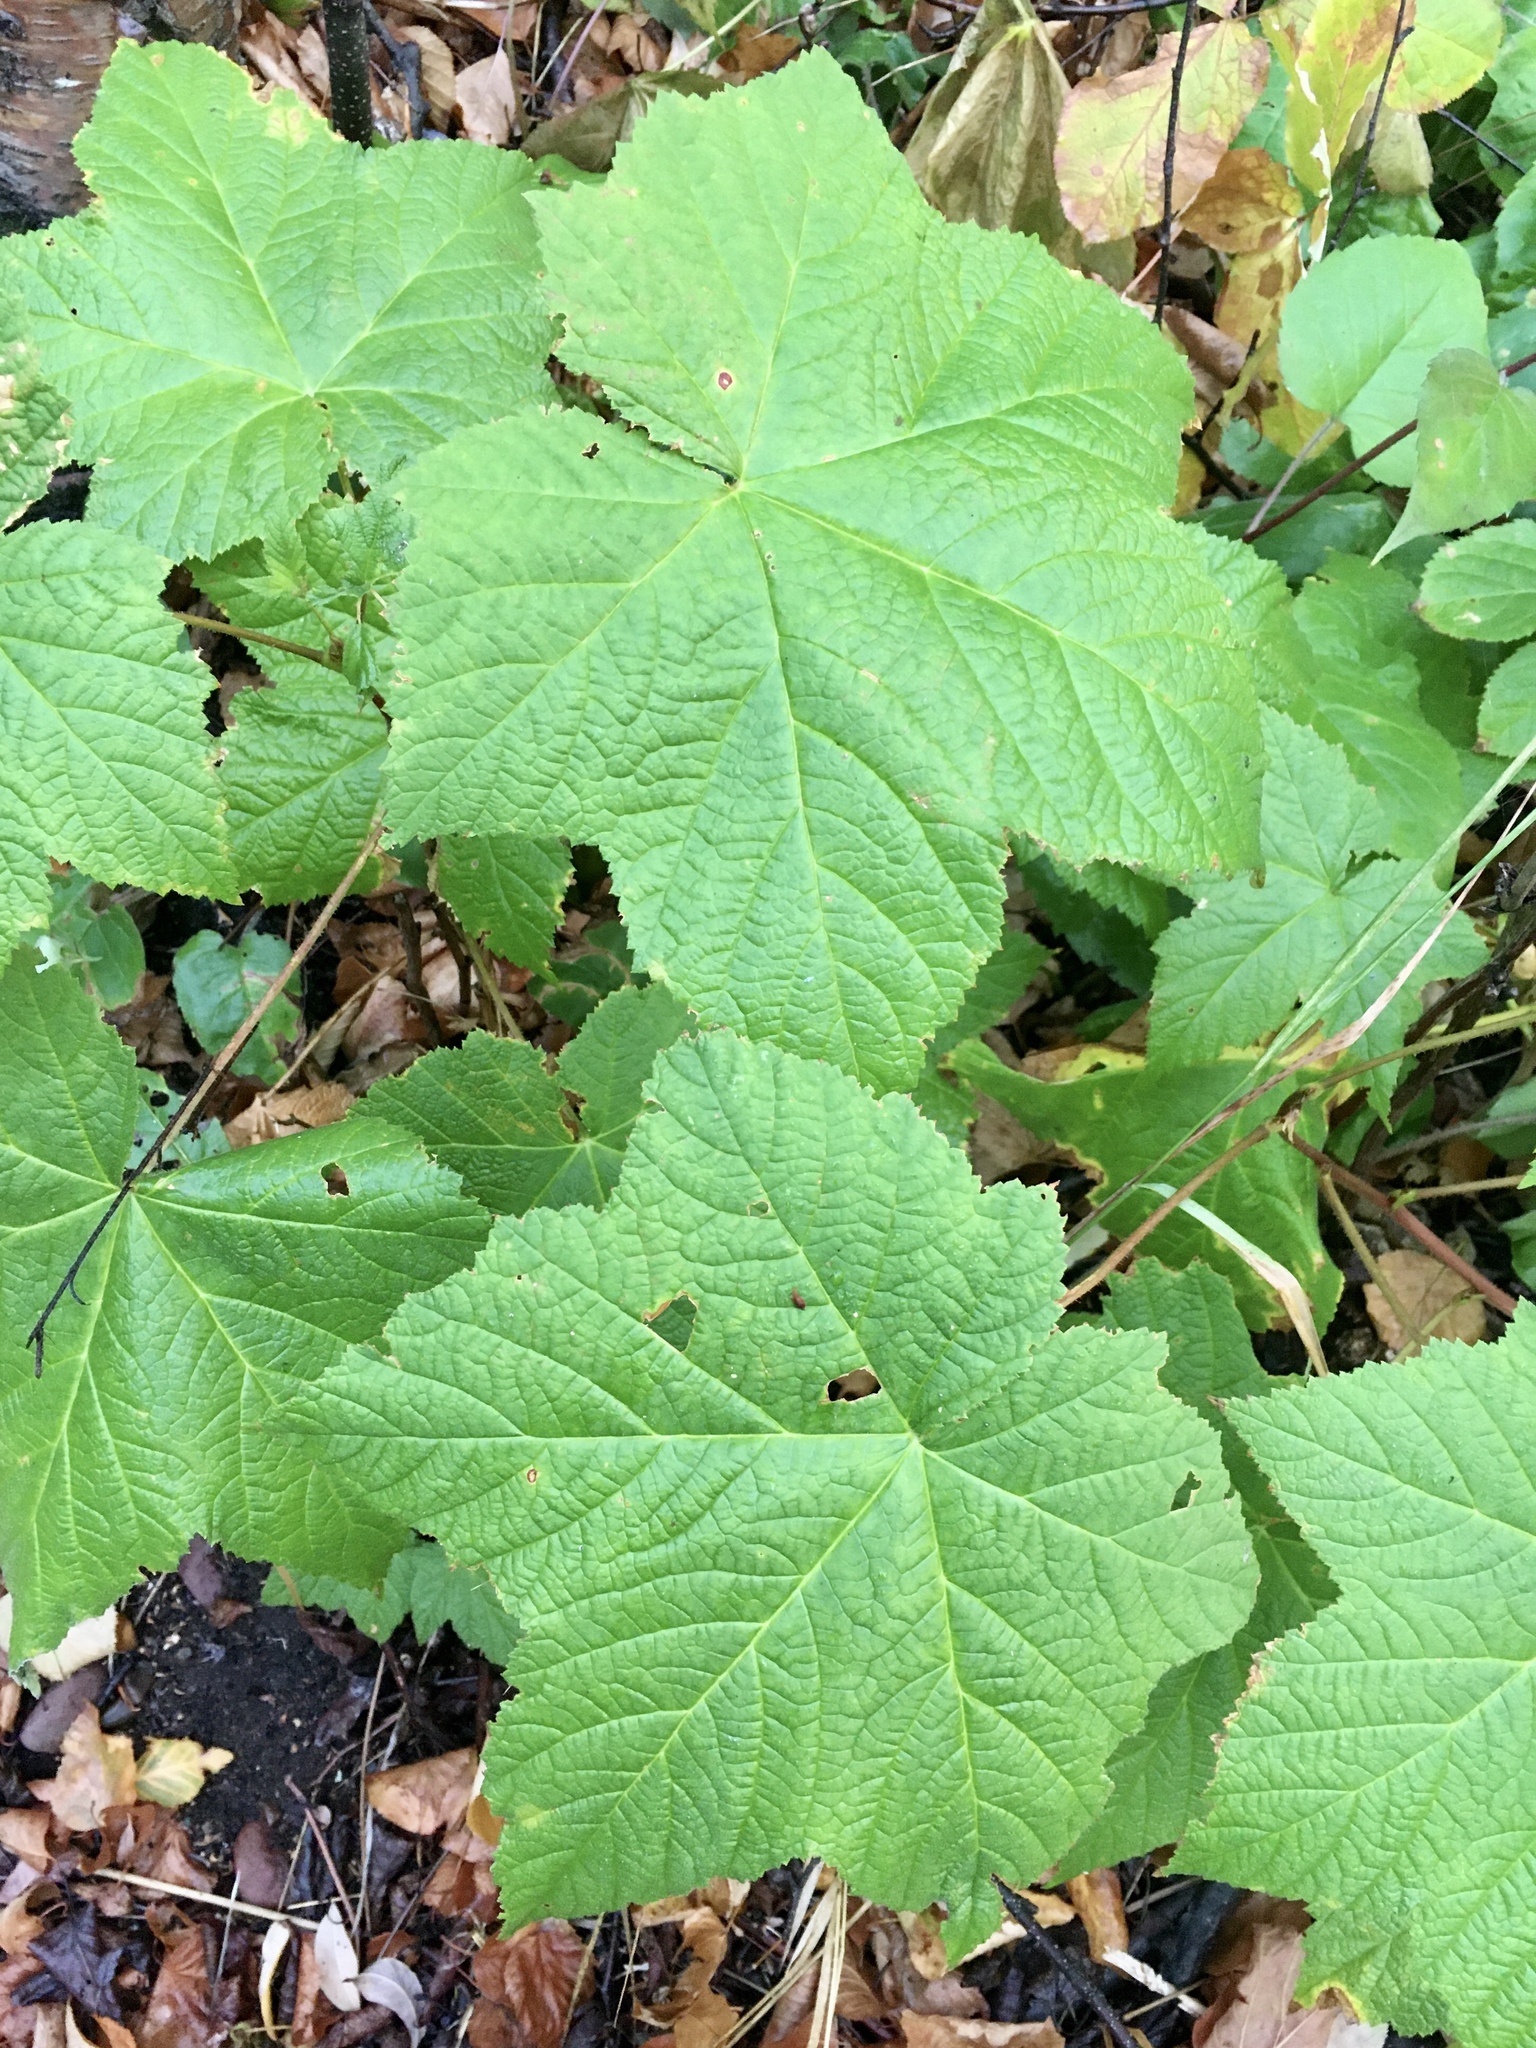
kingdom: Plantae
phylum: Tracheophyta
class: Magnoliopsida
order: Rosales
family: Rosaceae
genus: Rubus
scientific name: Rubus parviflorus
